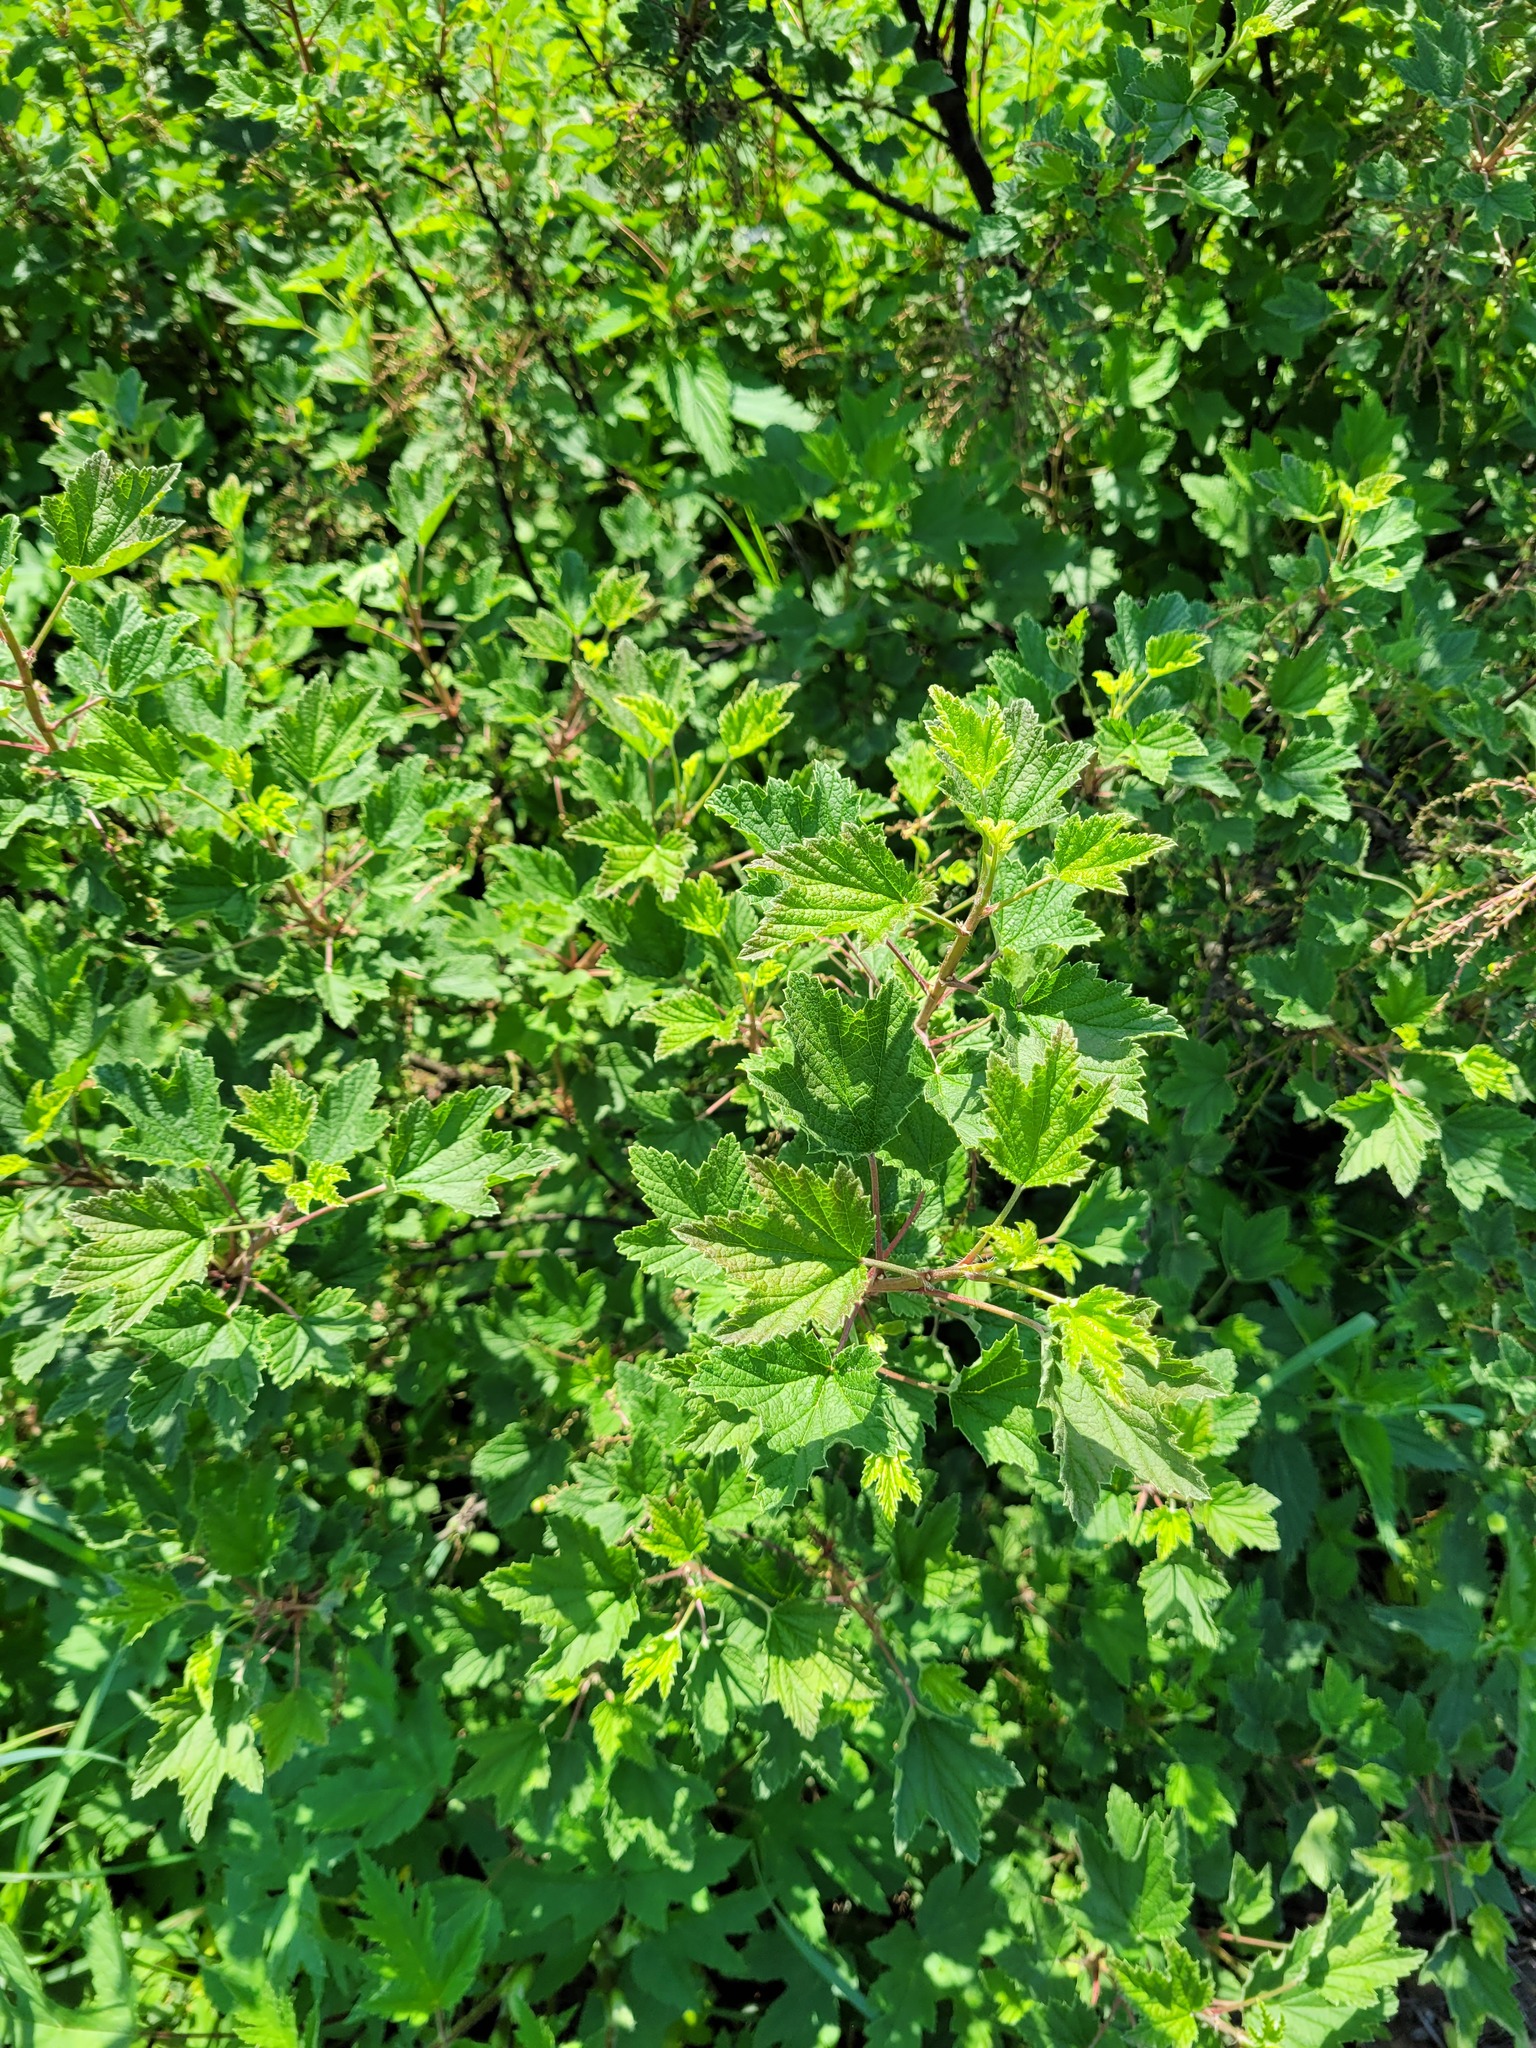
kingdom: Plantae
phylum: Tracheophyta
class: Magnoliopsida
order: Saxifragales
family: Grossulariaceae
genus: Ribes
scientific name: Ribes spicatum
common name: Downy currant
